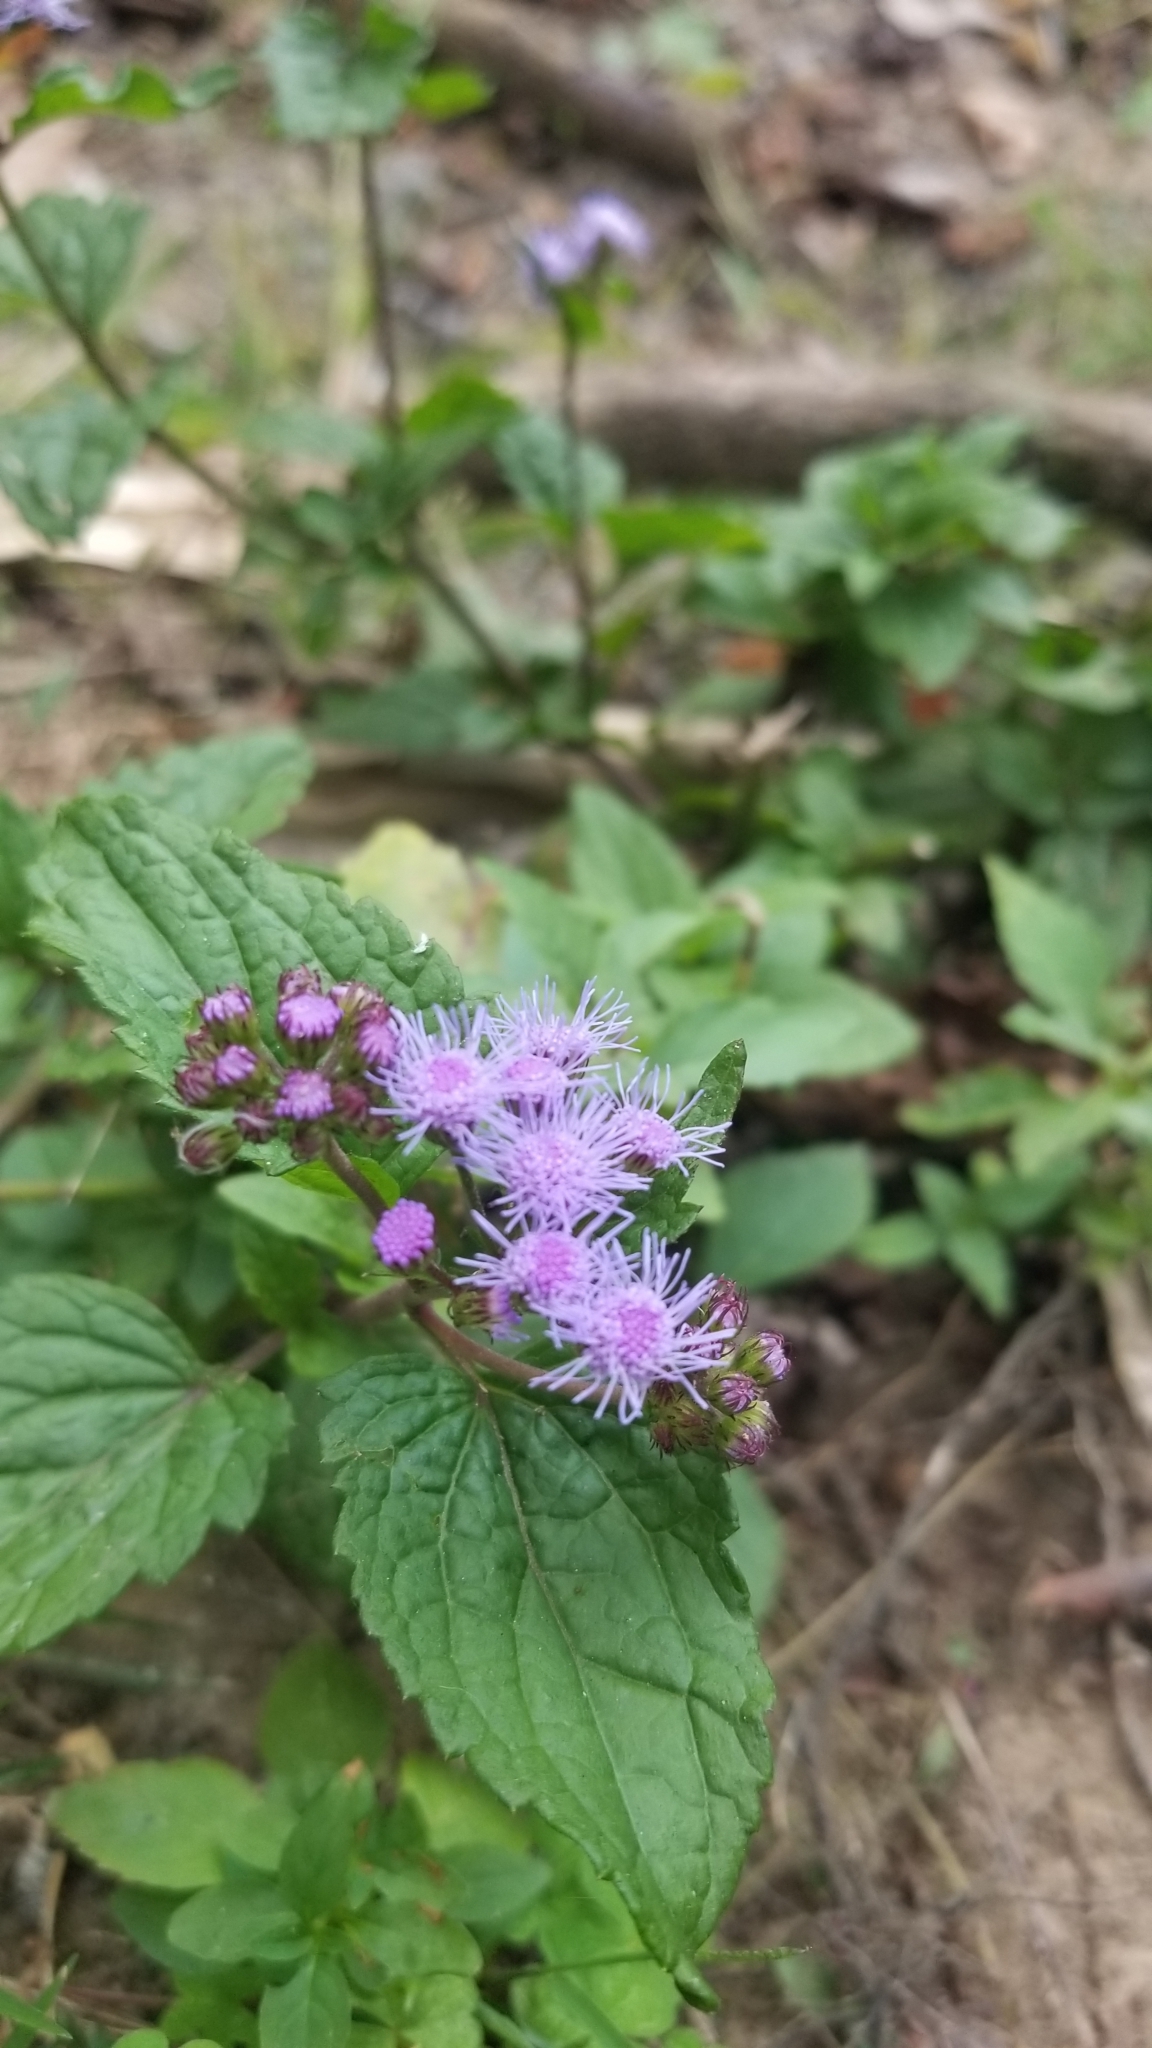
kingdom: Plantae
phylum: Tracheophyta
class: Magnoliopsida
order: Asterales
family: Asteraceae
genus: Conoclinium
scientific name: Conoclinium coelestinum
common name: Blue mistflower
